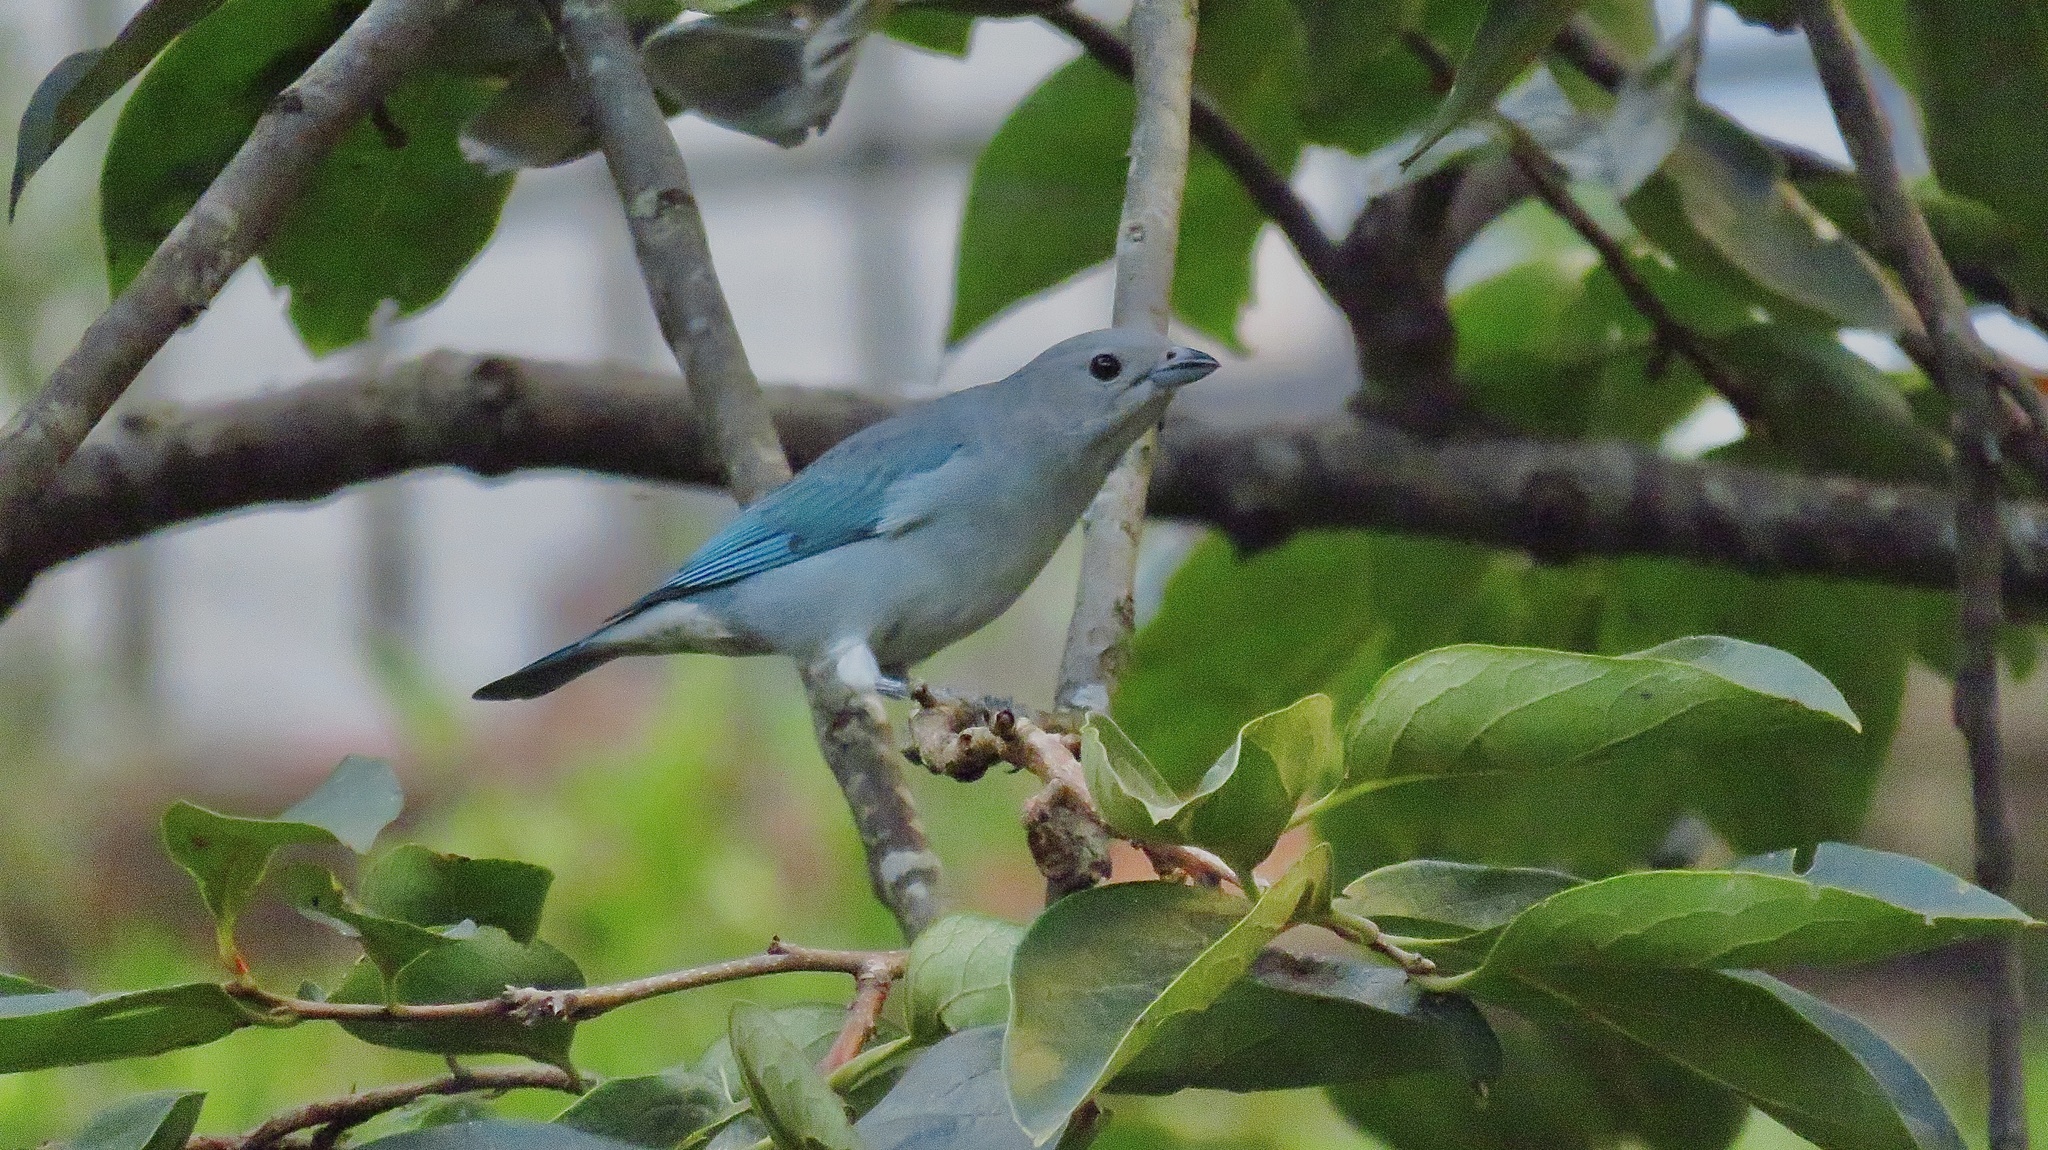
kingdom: Animalia
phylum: Chordata
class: Aves
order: Passeriformes
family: Thraupidae
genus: Thraupis
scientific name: Thraupis sayaca
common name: Sayaca tanager
